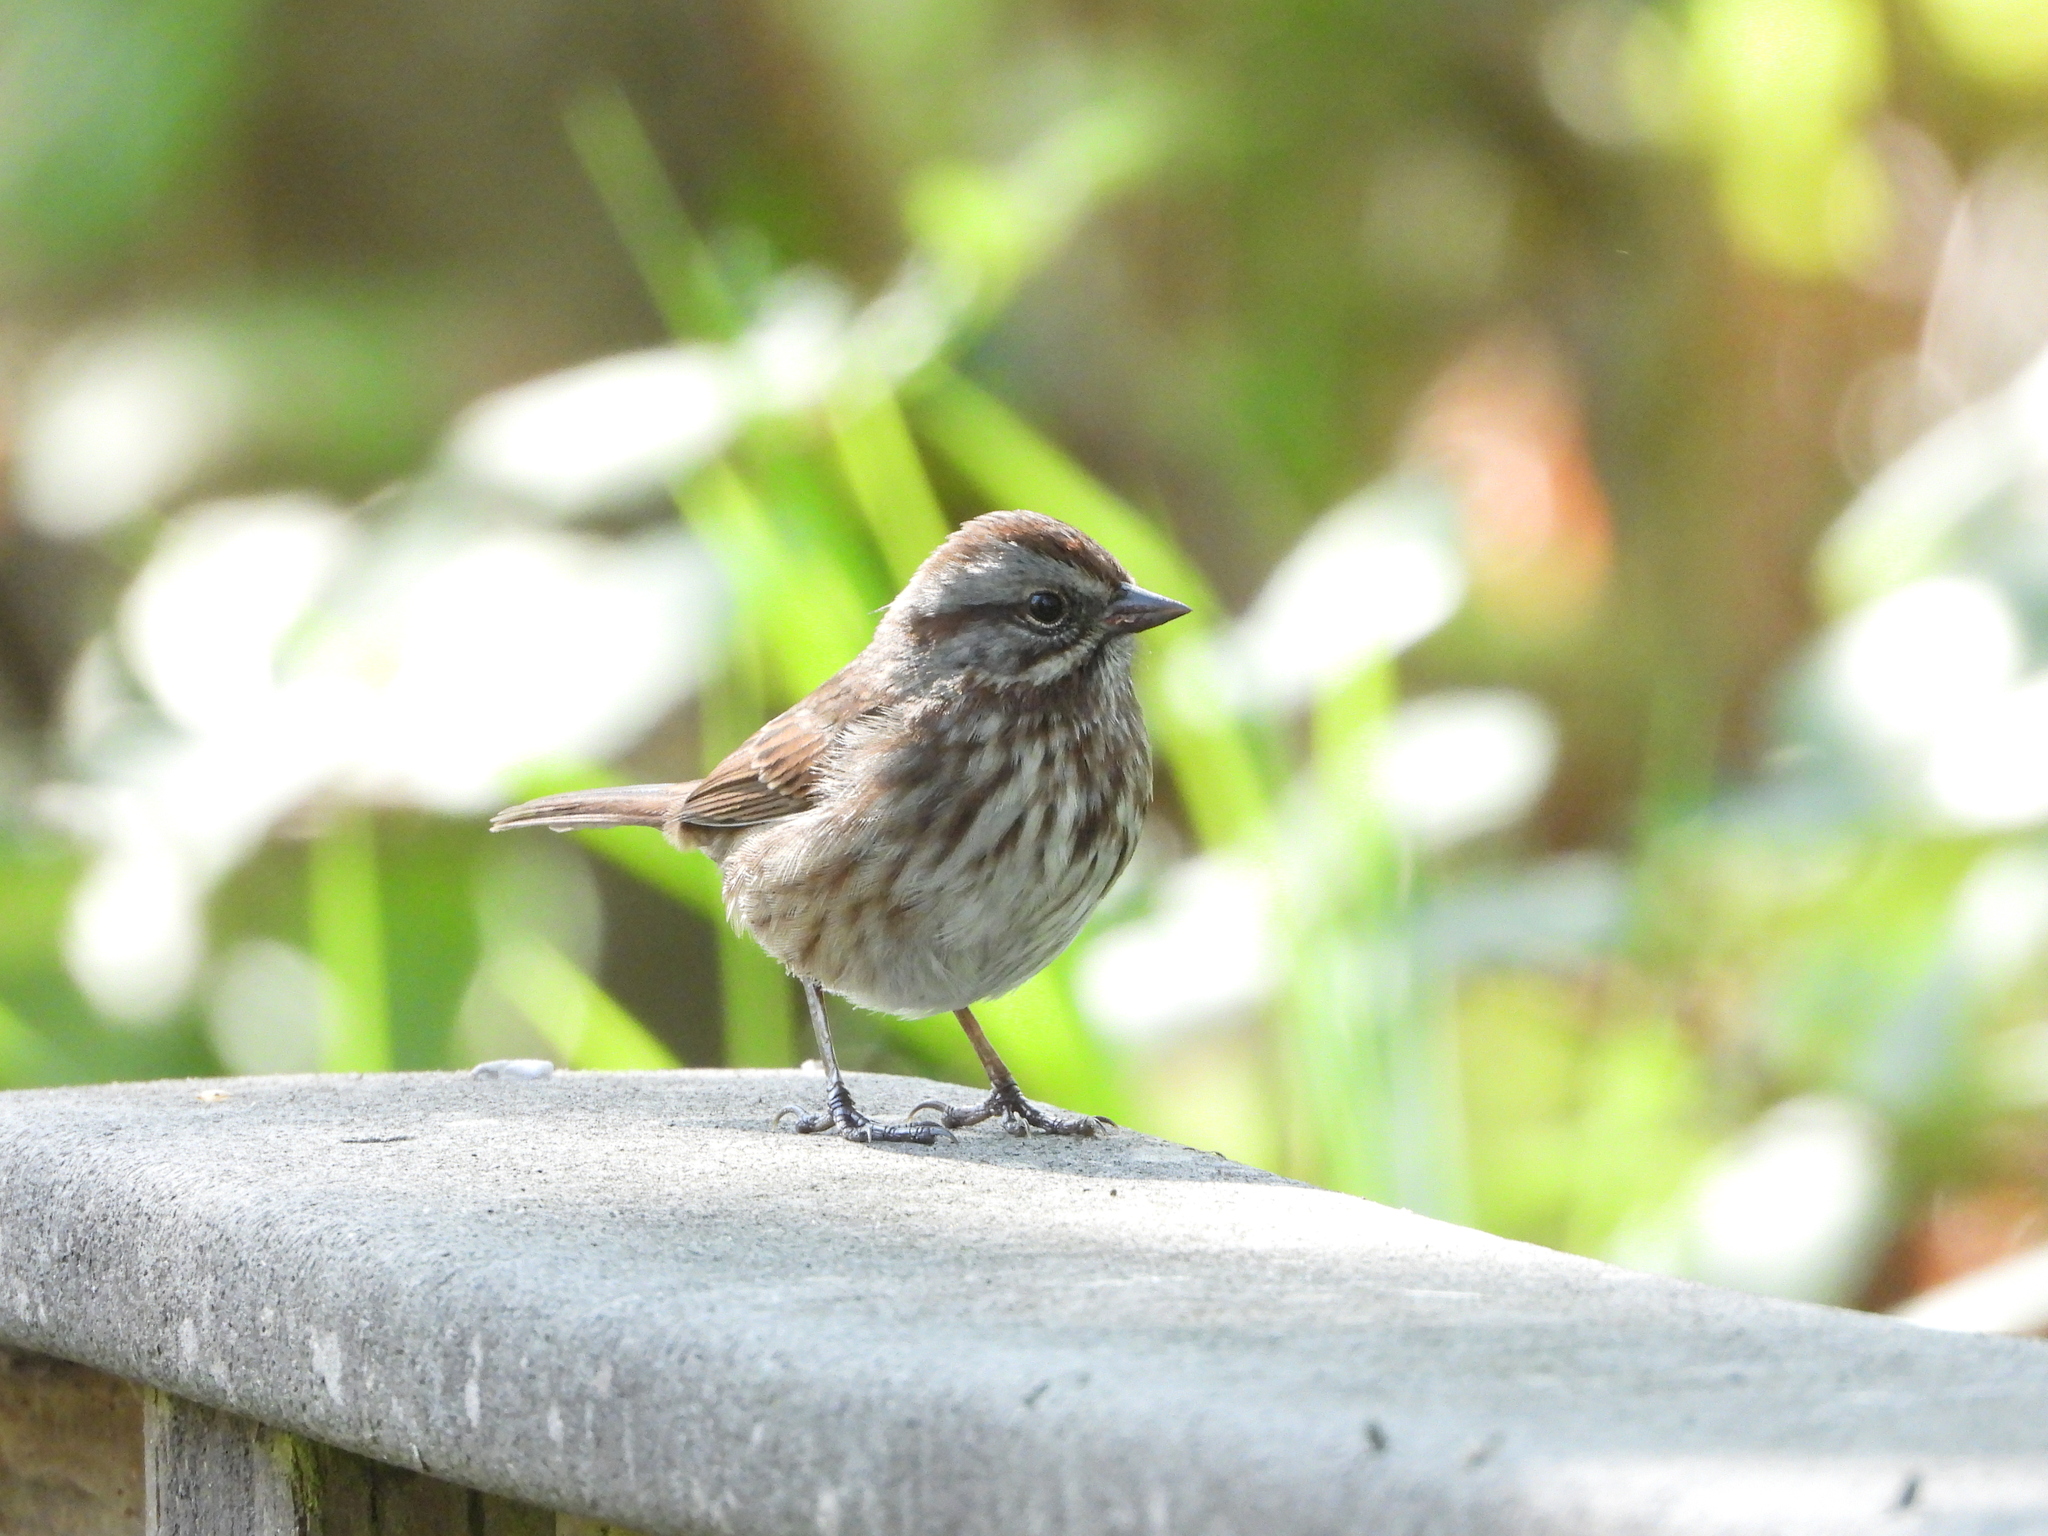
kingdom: Animalia
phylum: Chordata
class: Aves
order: Passeriformes
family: Passerellidae
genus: Melospiza
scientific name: Melospiza melodia
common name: Song sparrow
